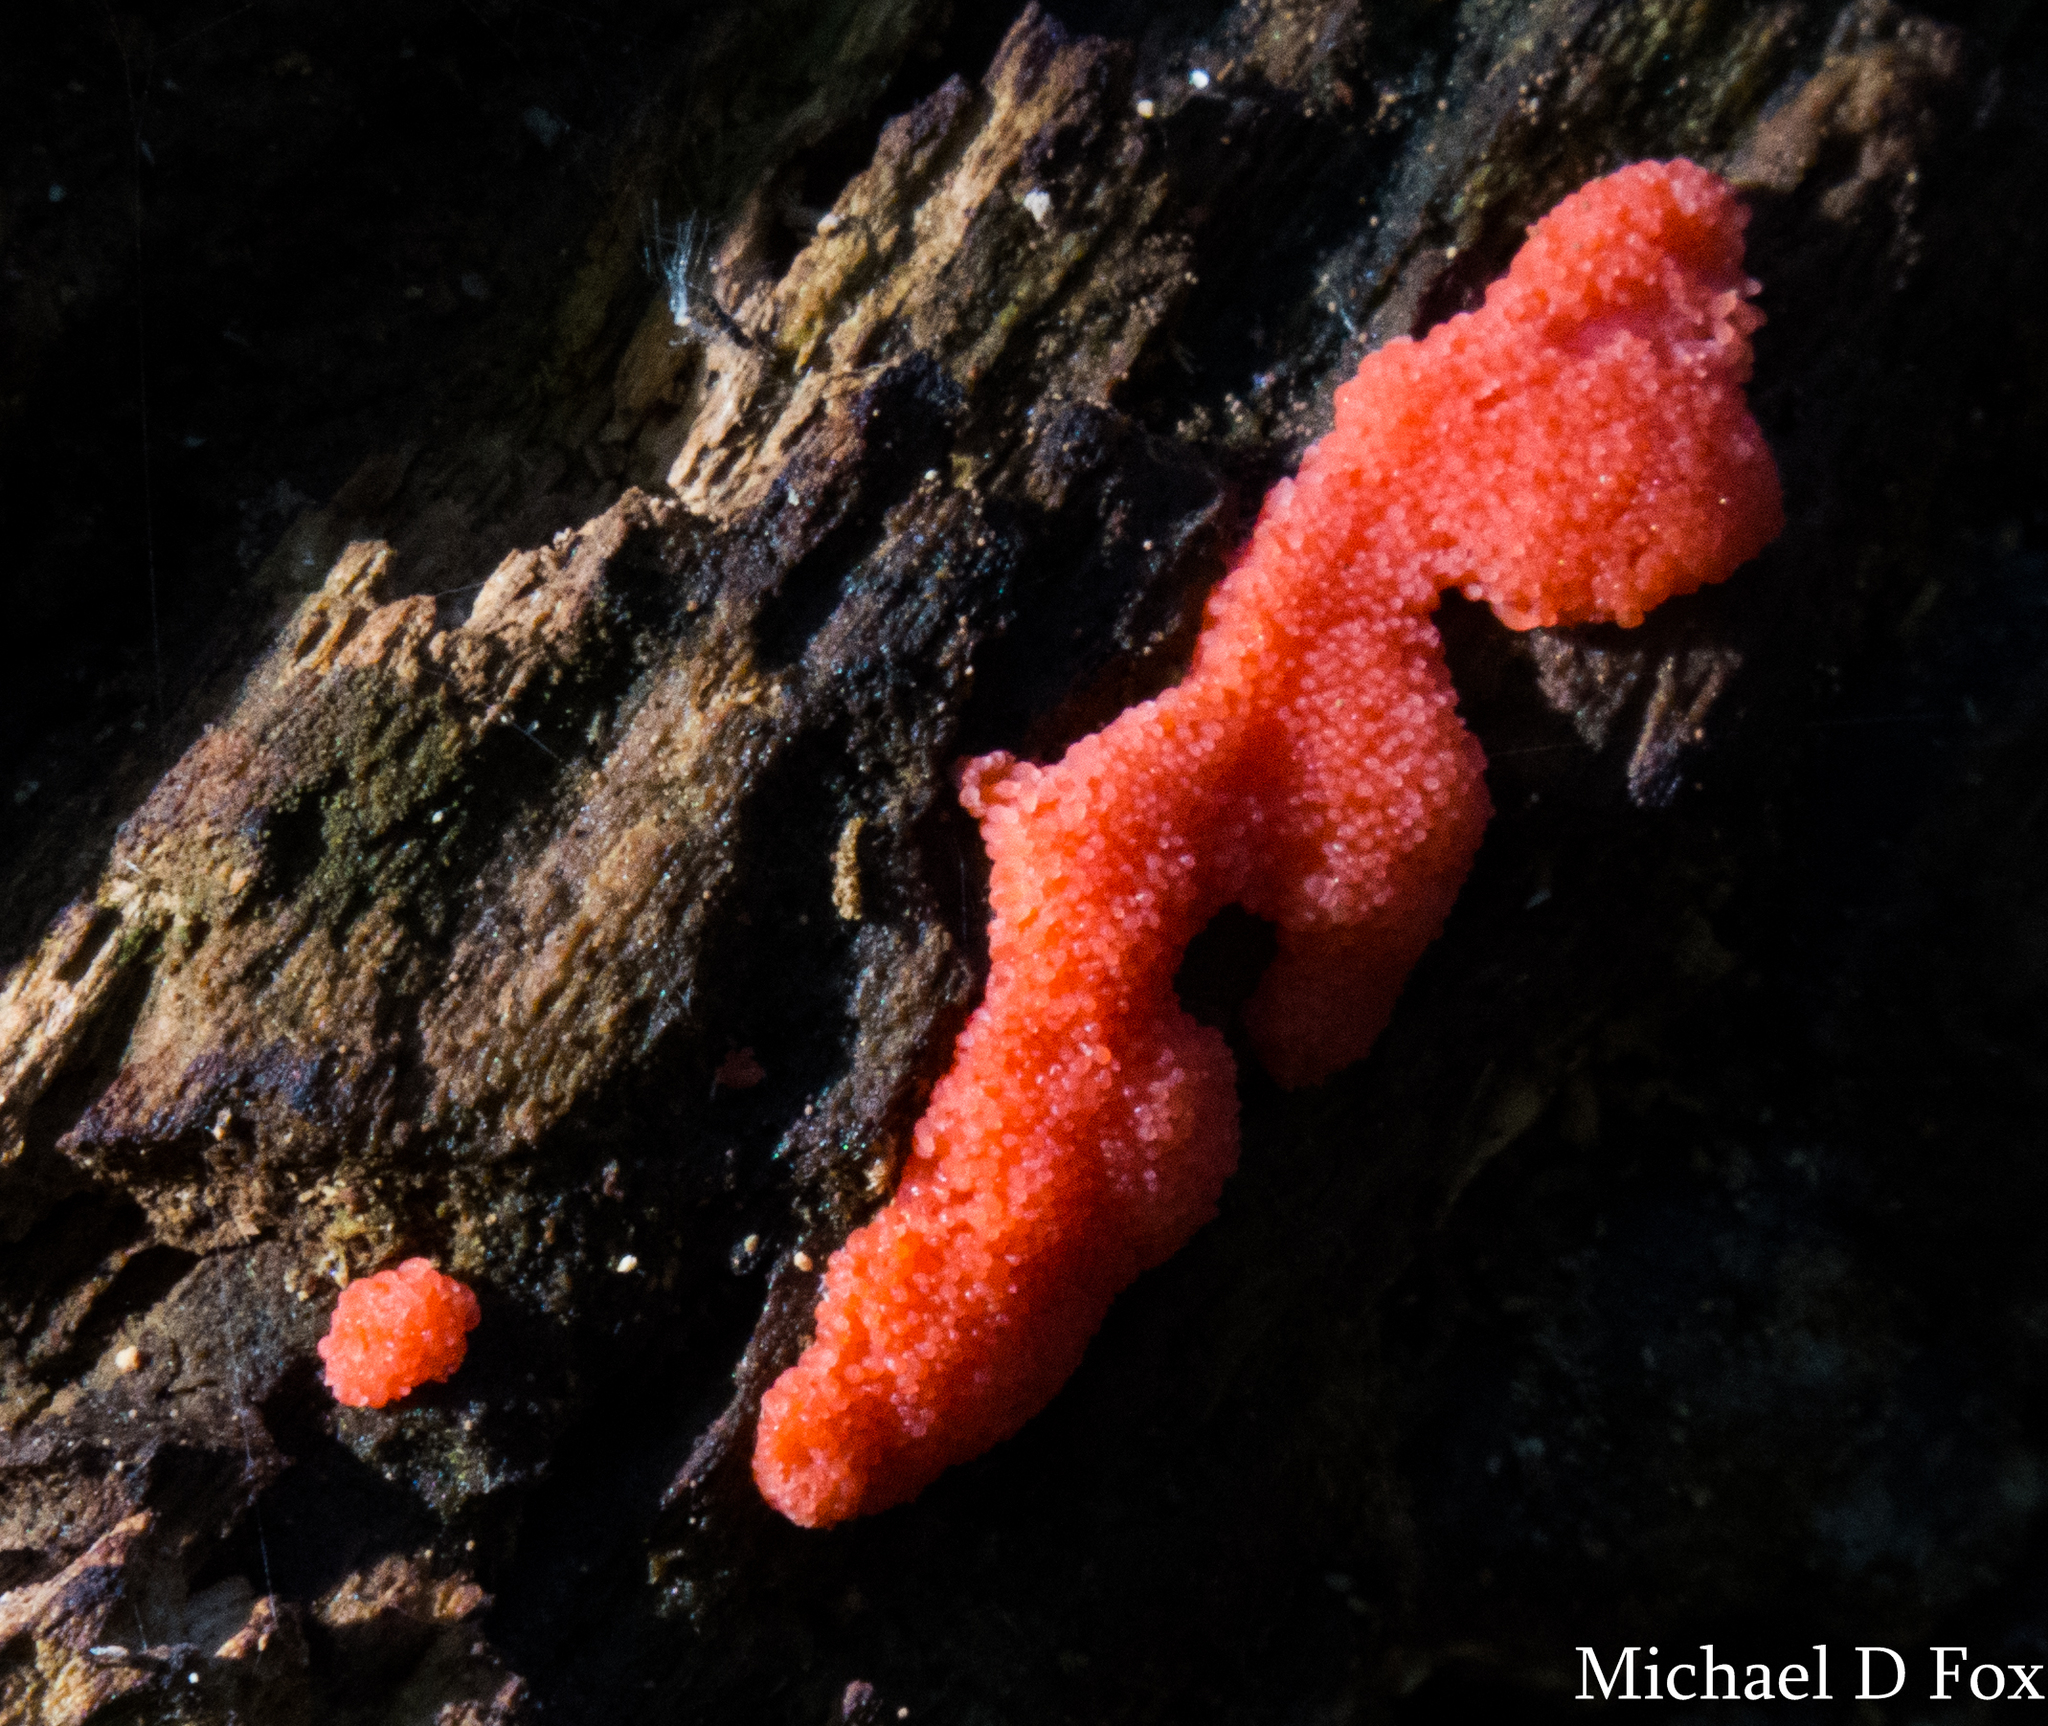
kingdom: Protozoa
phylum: Mycetozoa
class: Myxomycetes
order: Cribrariales
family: Tubiferaceae
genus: Tubifera
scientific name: Tubifera ferruginosa
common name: Red raspberry slime mold
